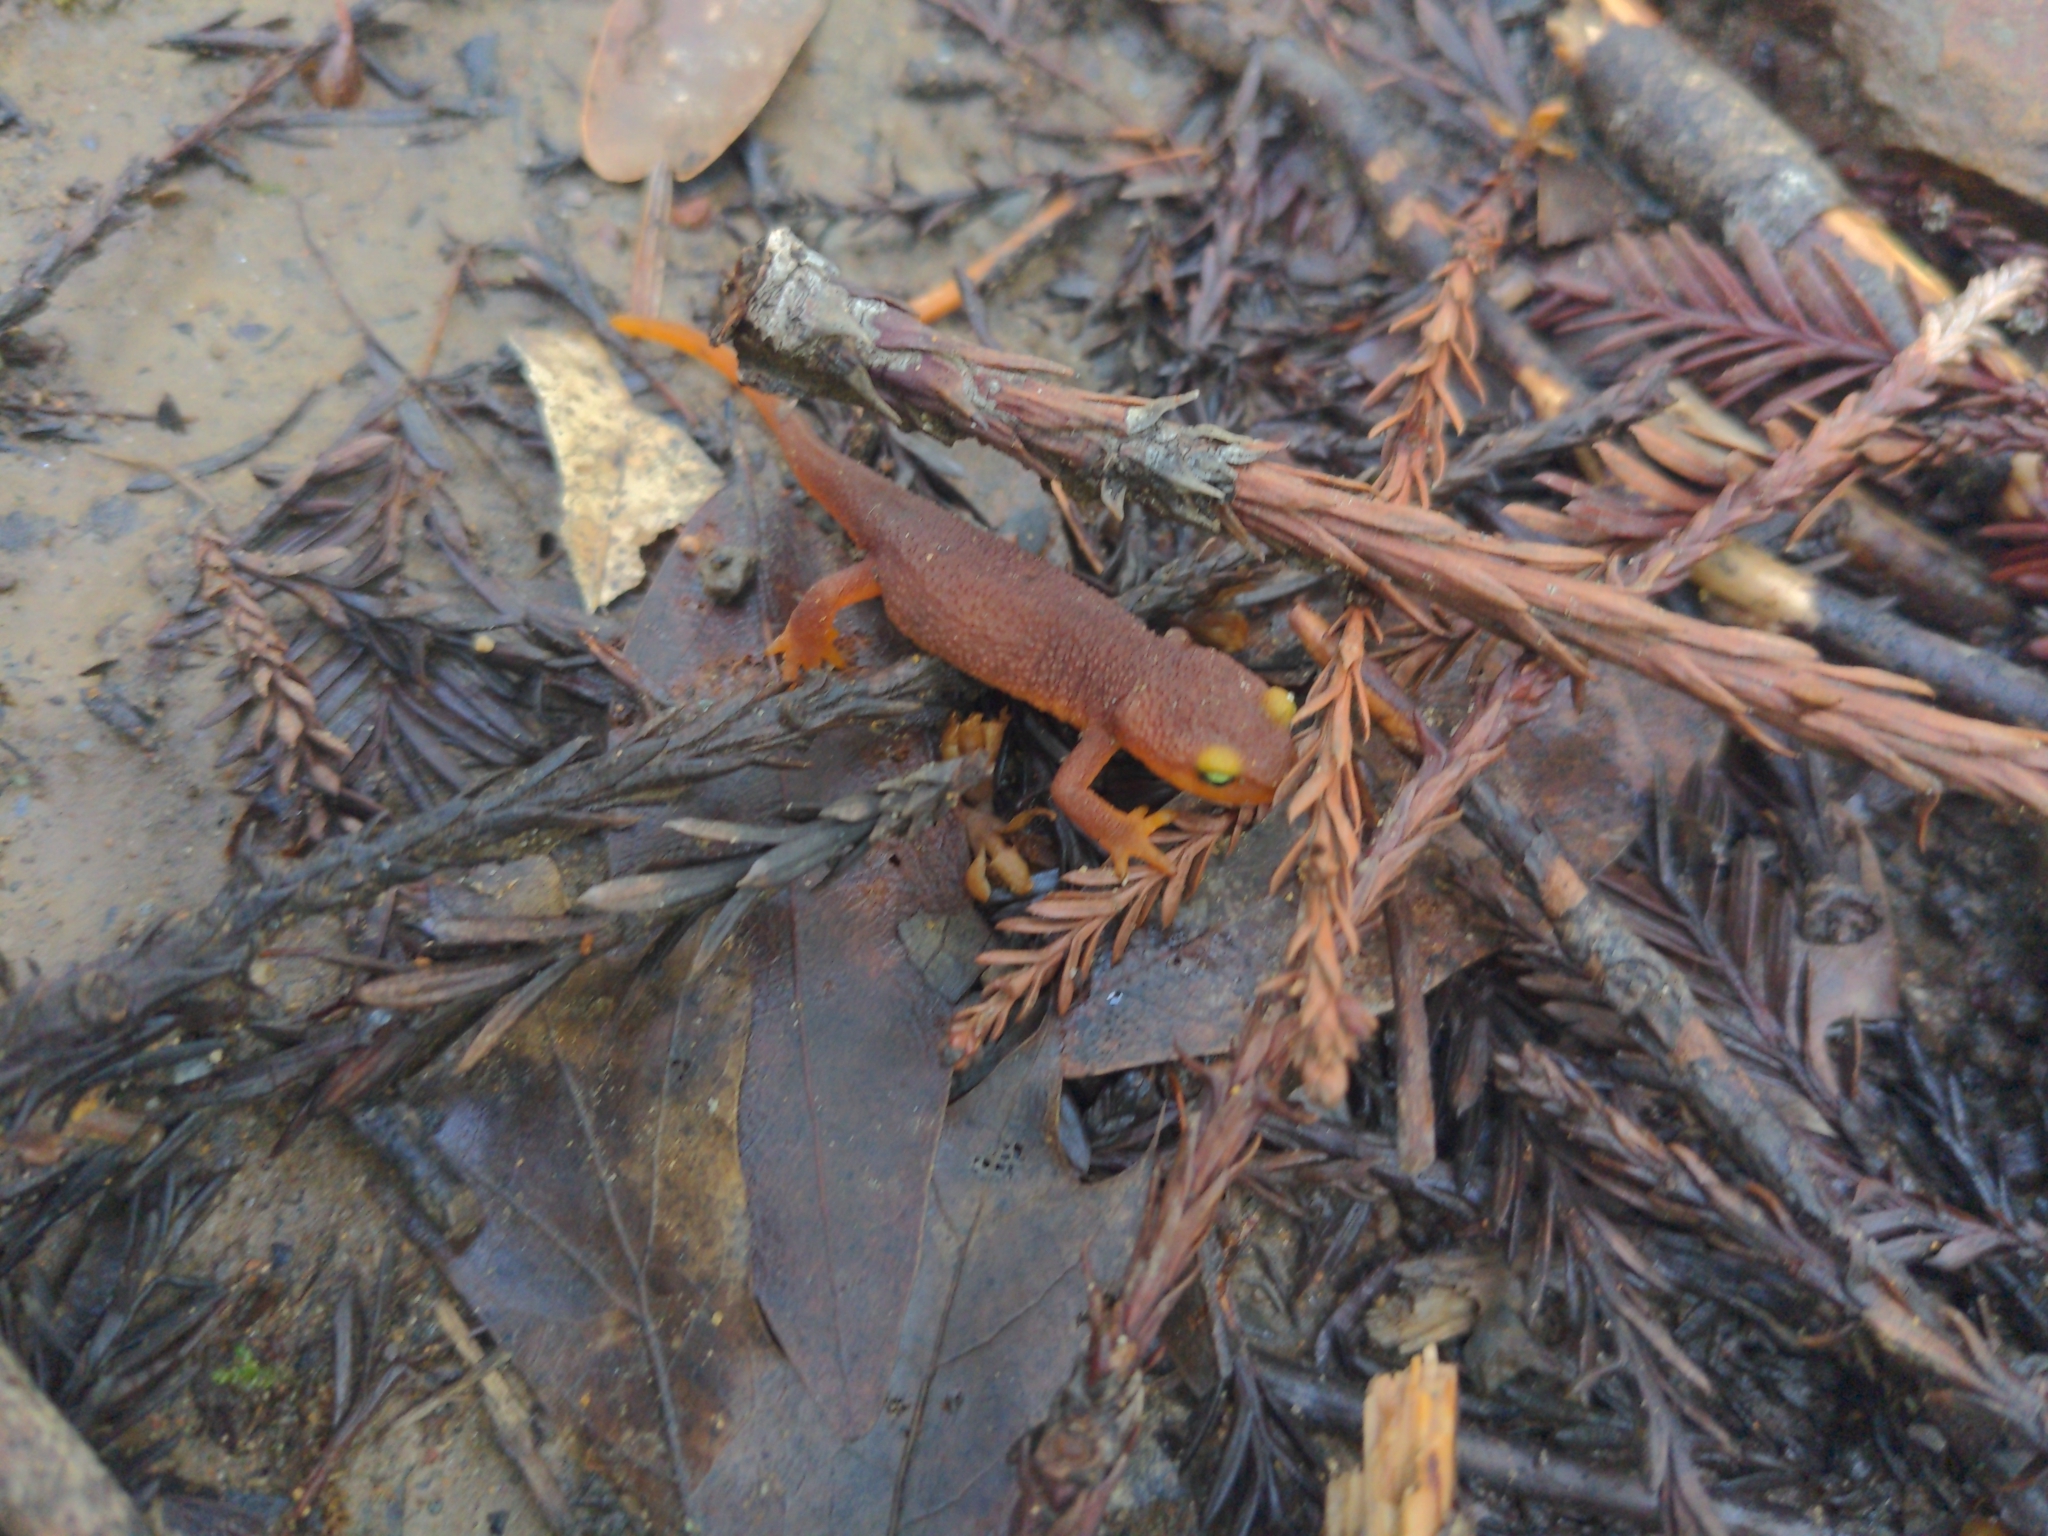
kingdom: Animalia
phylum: Chordata
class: Amphibia
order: Caudata
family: Salamandridae
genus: Taricha
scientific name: Taricha torosa
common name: California newt
